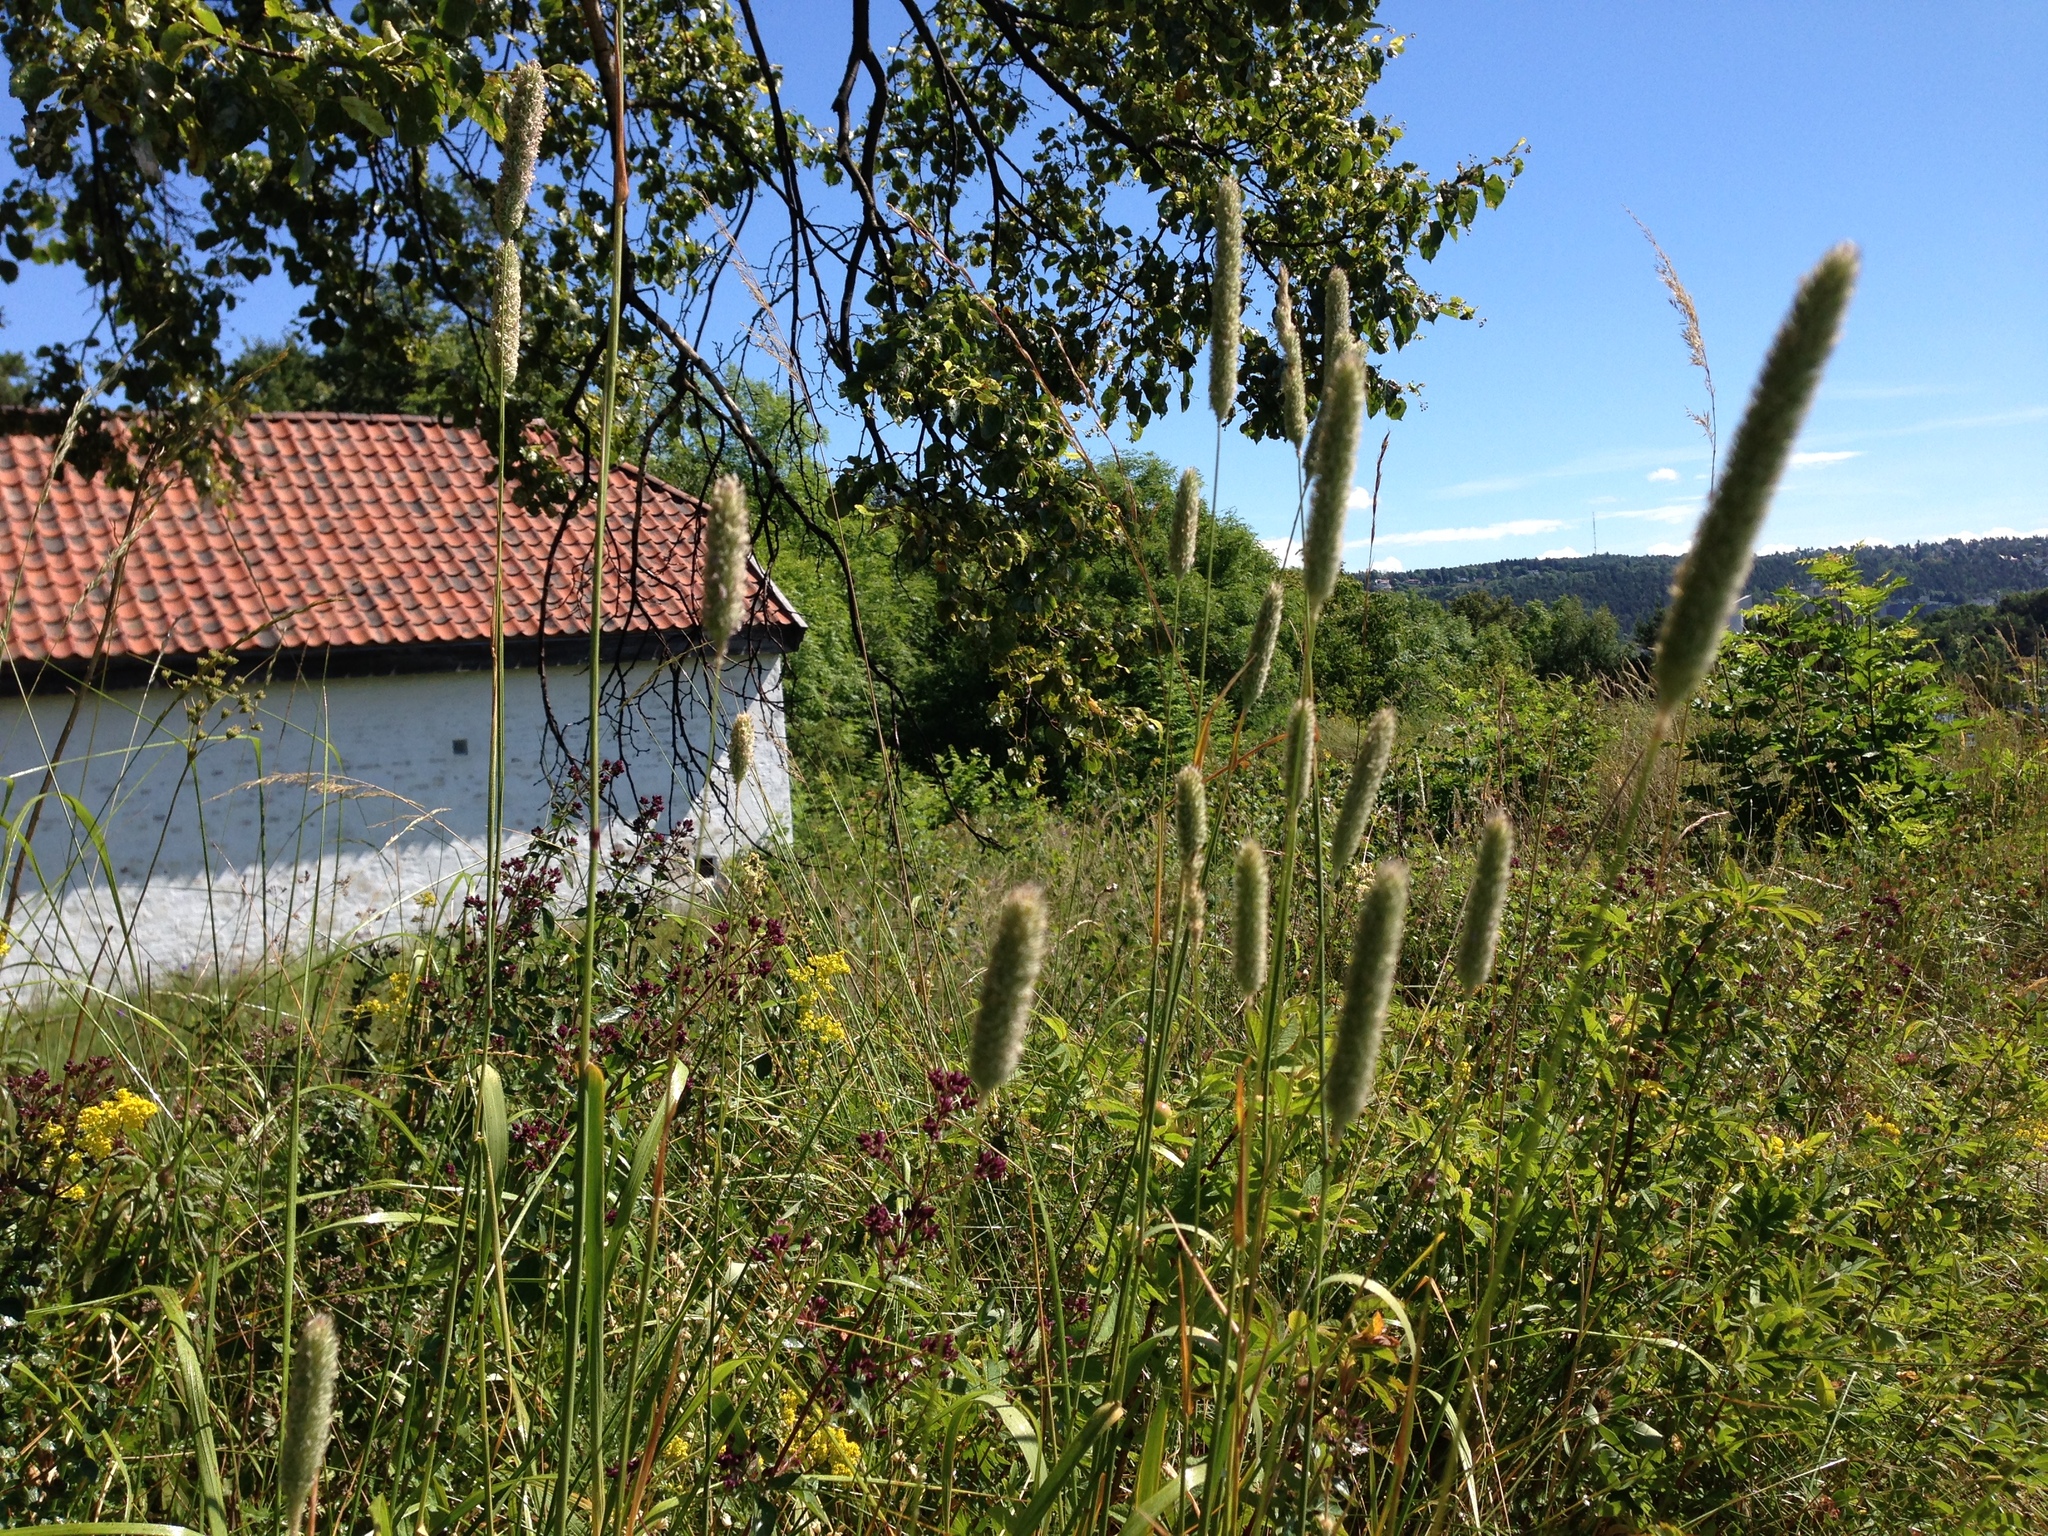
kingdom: Plantae
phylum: Tracheophyta
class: Liliopsida
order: Poales
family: Poaceae
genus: Phleum
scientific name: Phleum pratense
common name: Timothy grass
